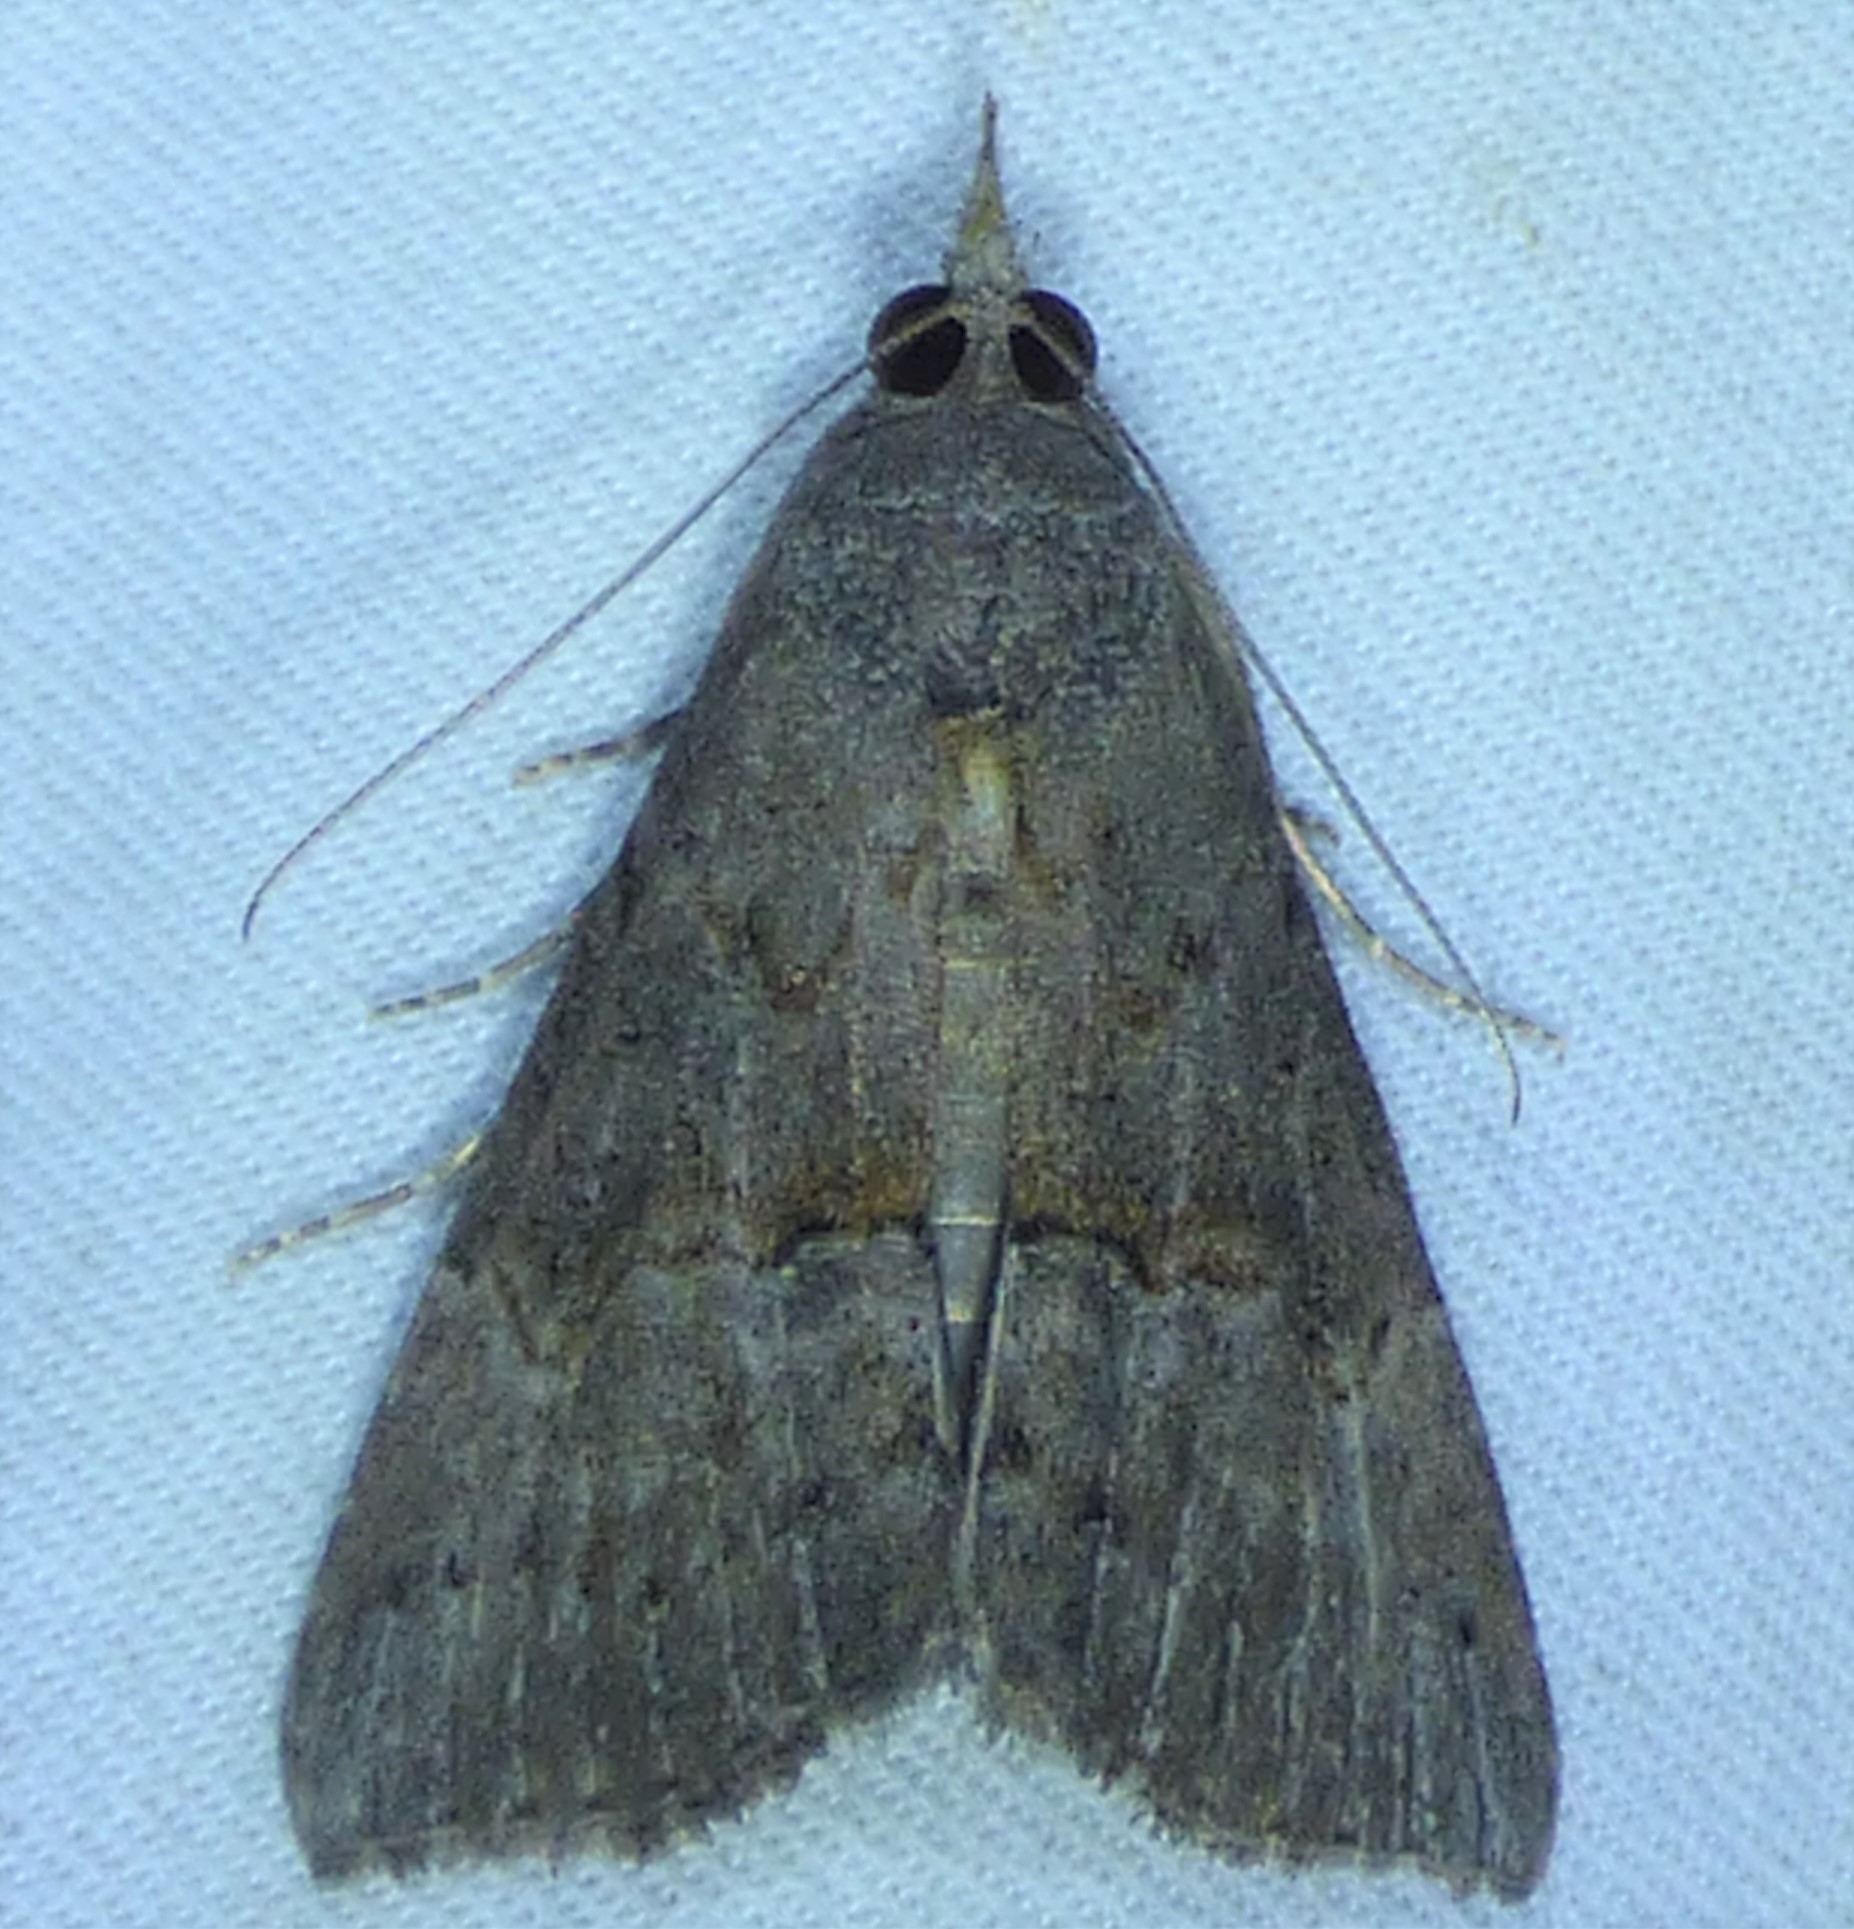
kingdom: Animalia
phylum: Arthropoda
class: Insecta
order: Lepidoptera
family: Erebidae
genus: Hypena
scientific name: Hypena scabra
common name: Green cloverworm
